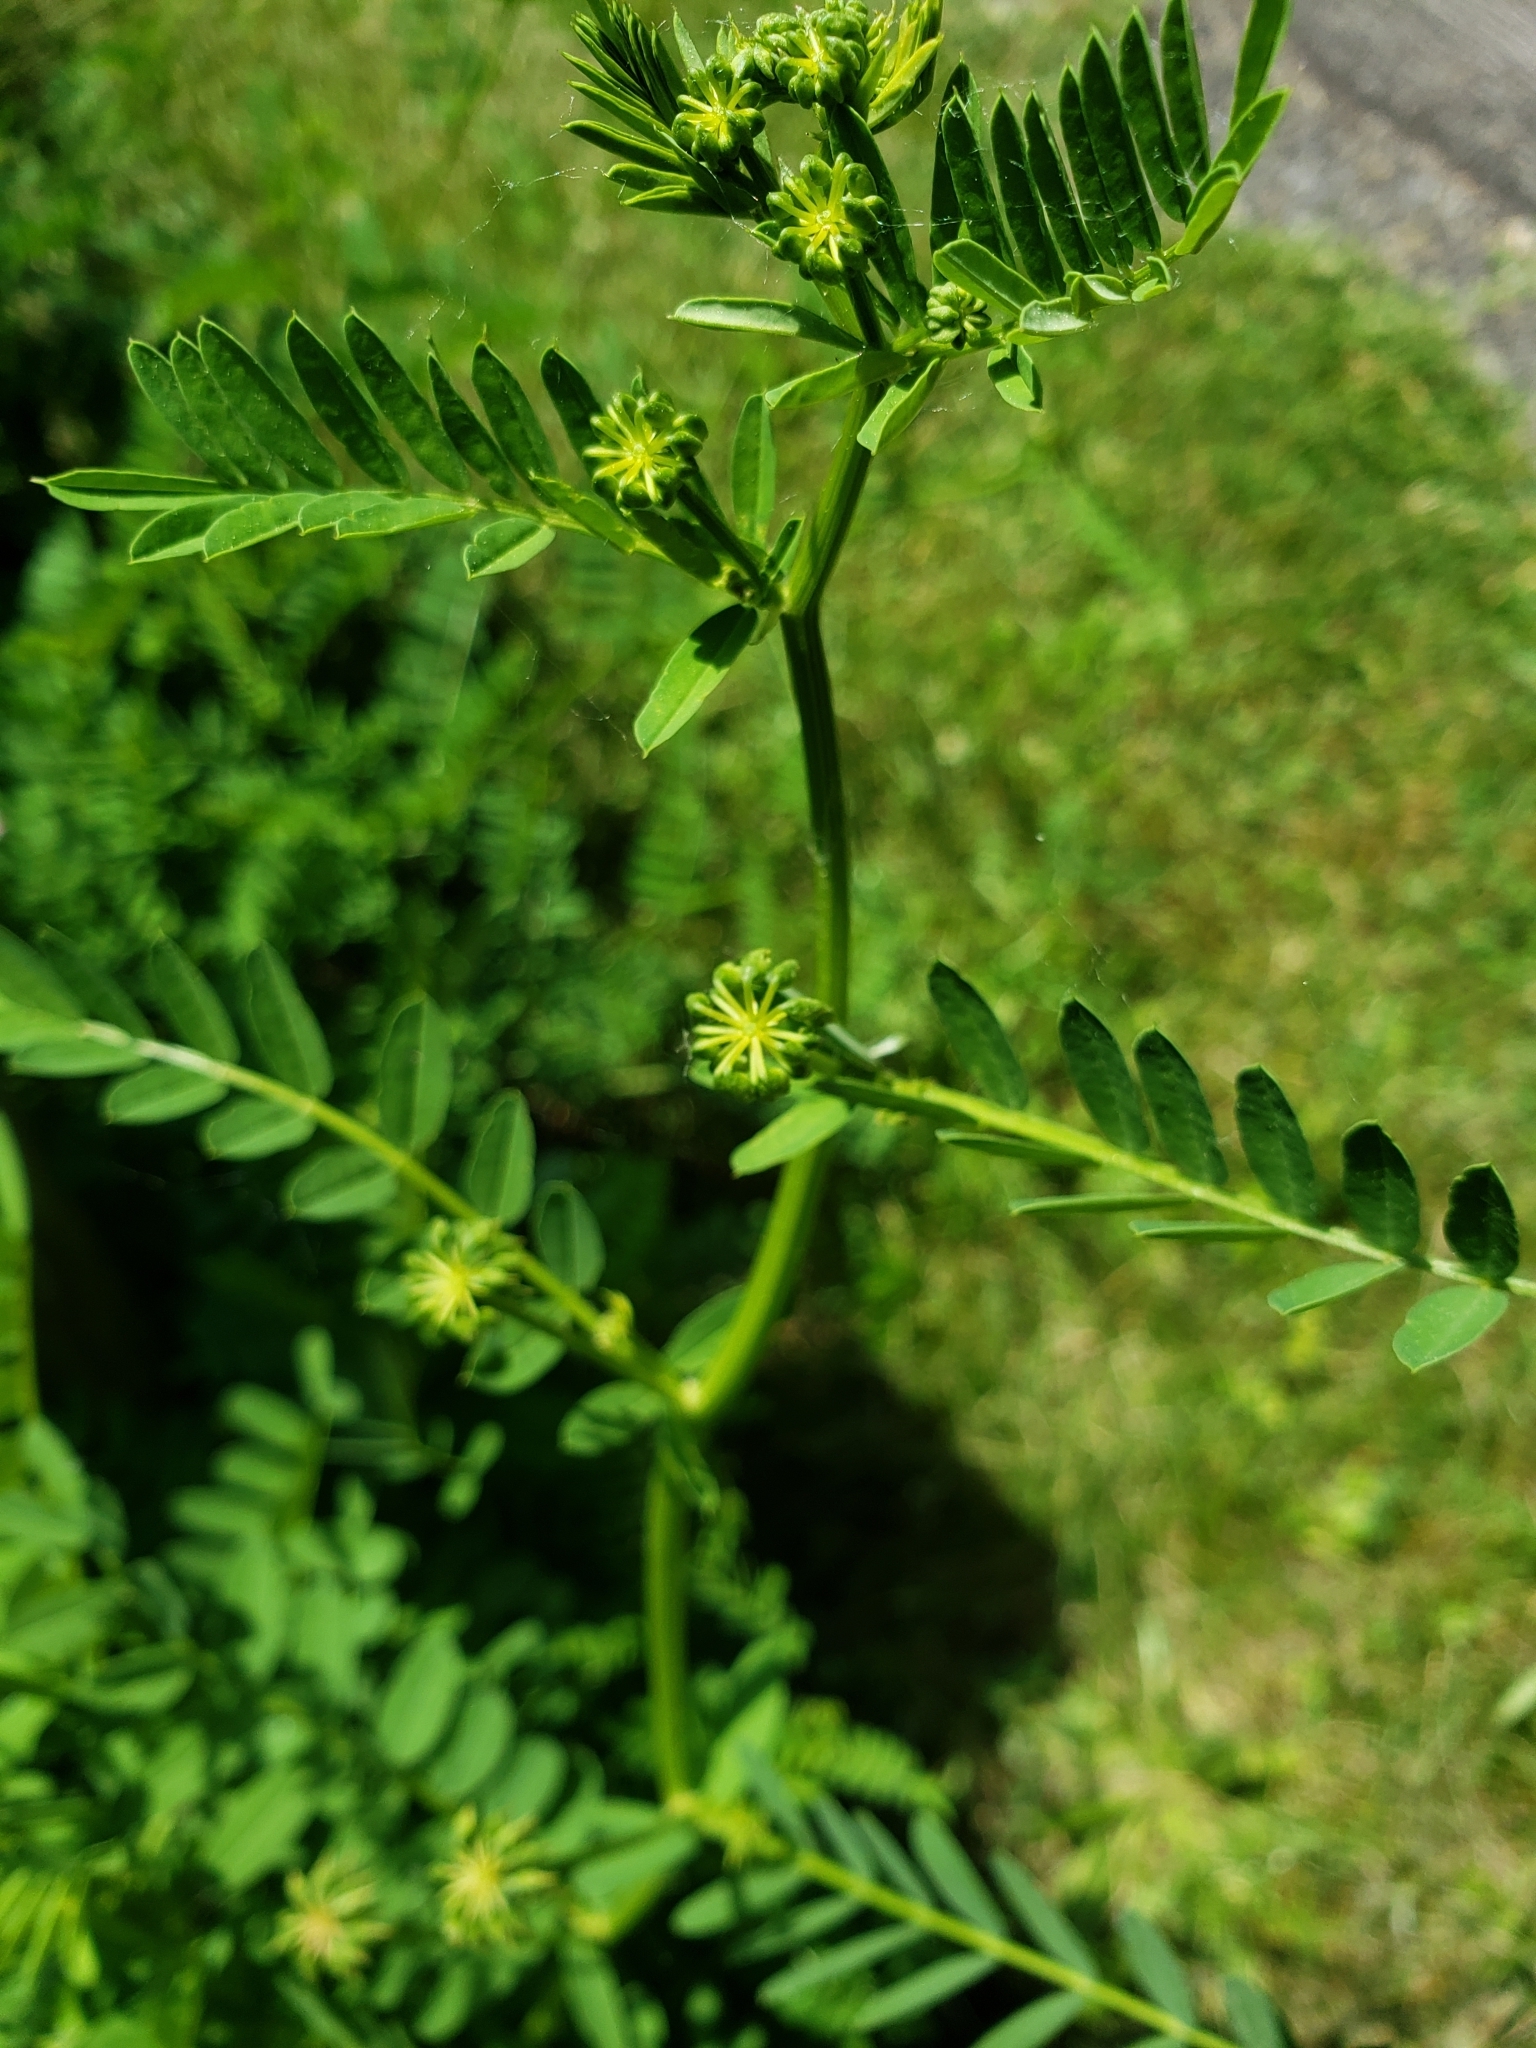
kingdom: Plantae
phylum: Tracheophyta
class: Magnoliopsida
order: Fabales
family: Fabaceae
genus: Coronilla
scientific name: Coronilla varia
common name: Crownvetch
